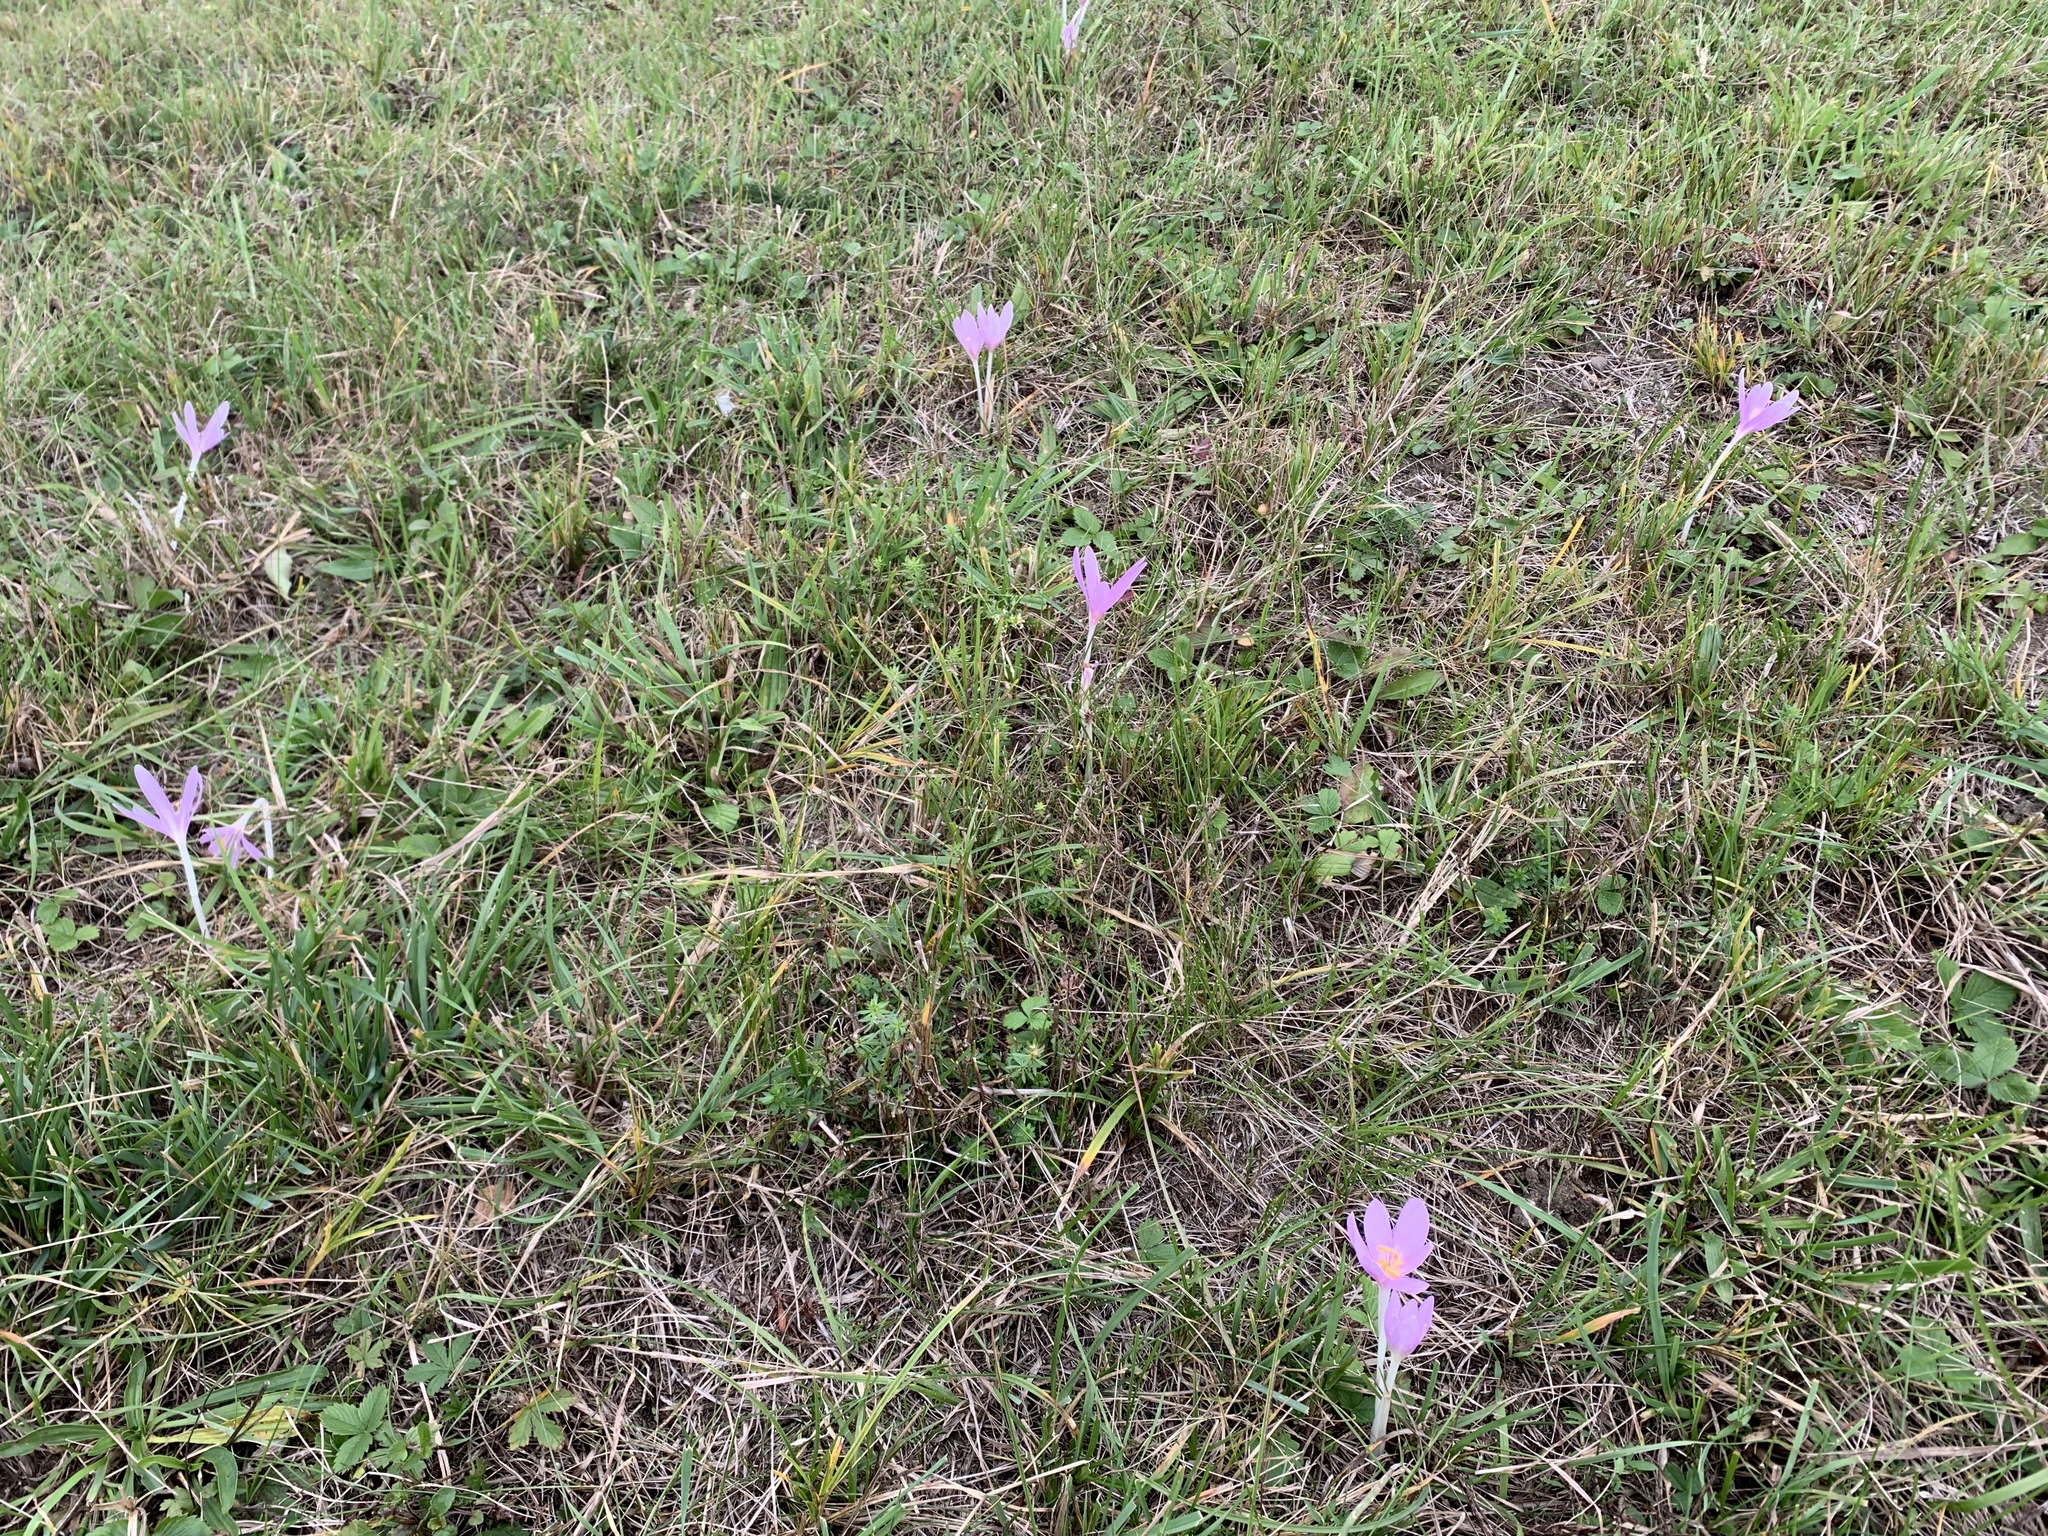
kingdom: Plantae
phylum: Tracheophyta
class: Liliopsida
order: Liliales
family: Colchicaceae
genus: Colchicum
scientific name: Colchicum autumnale
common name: Autumn crocus
